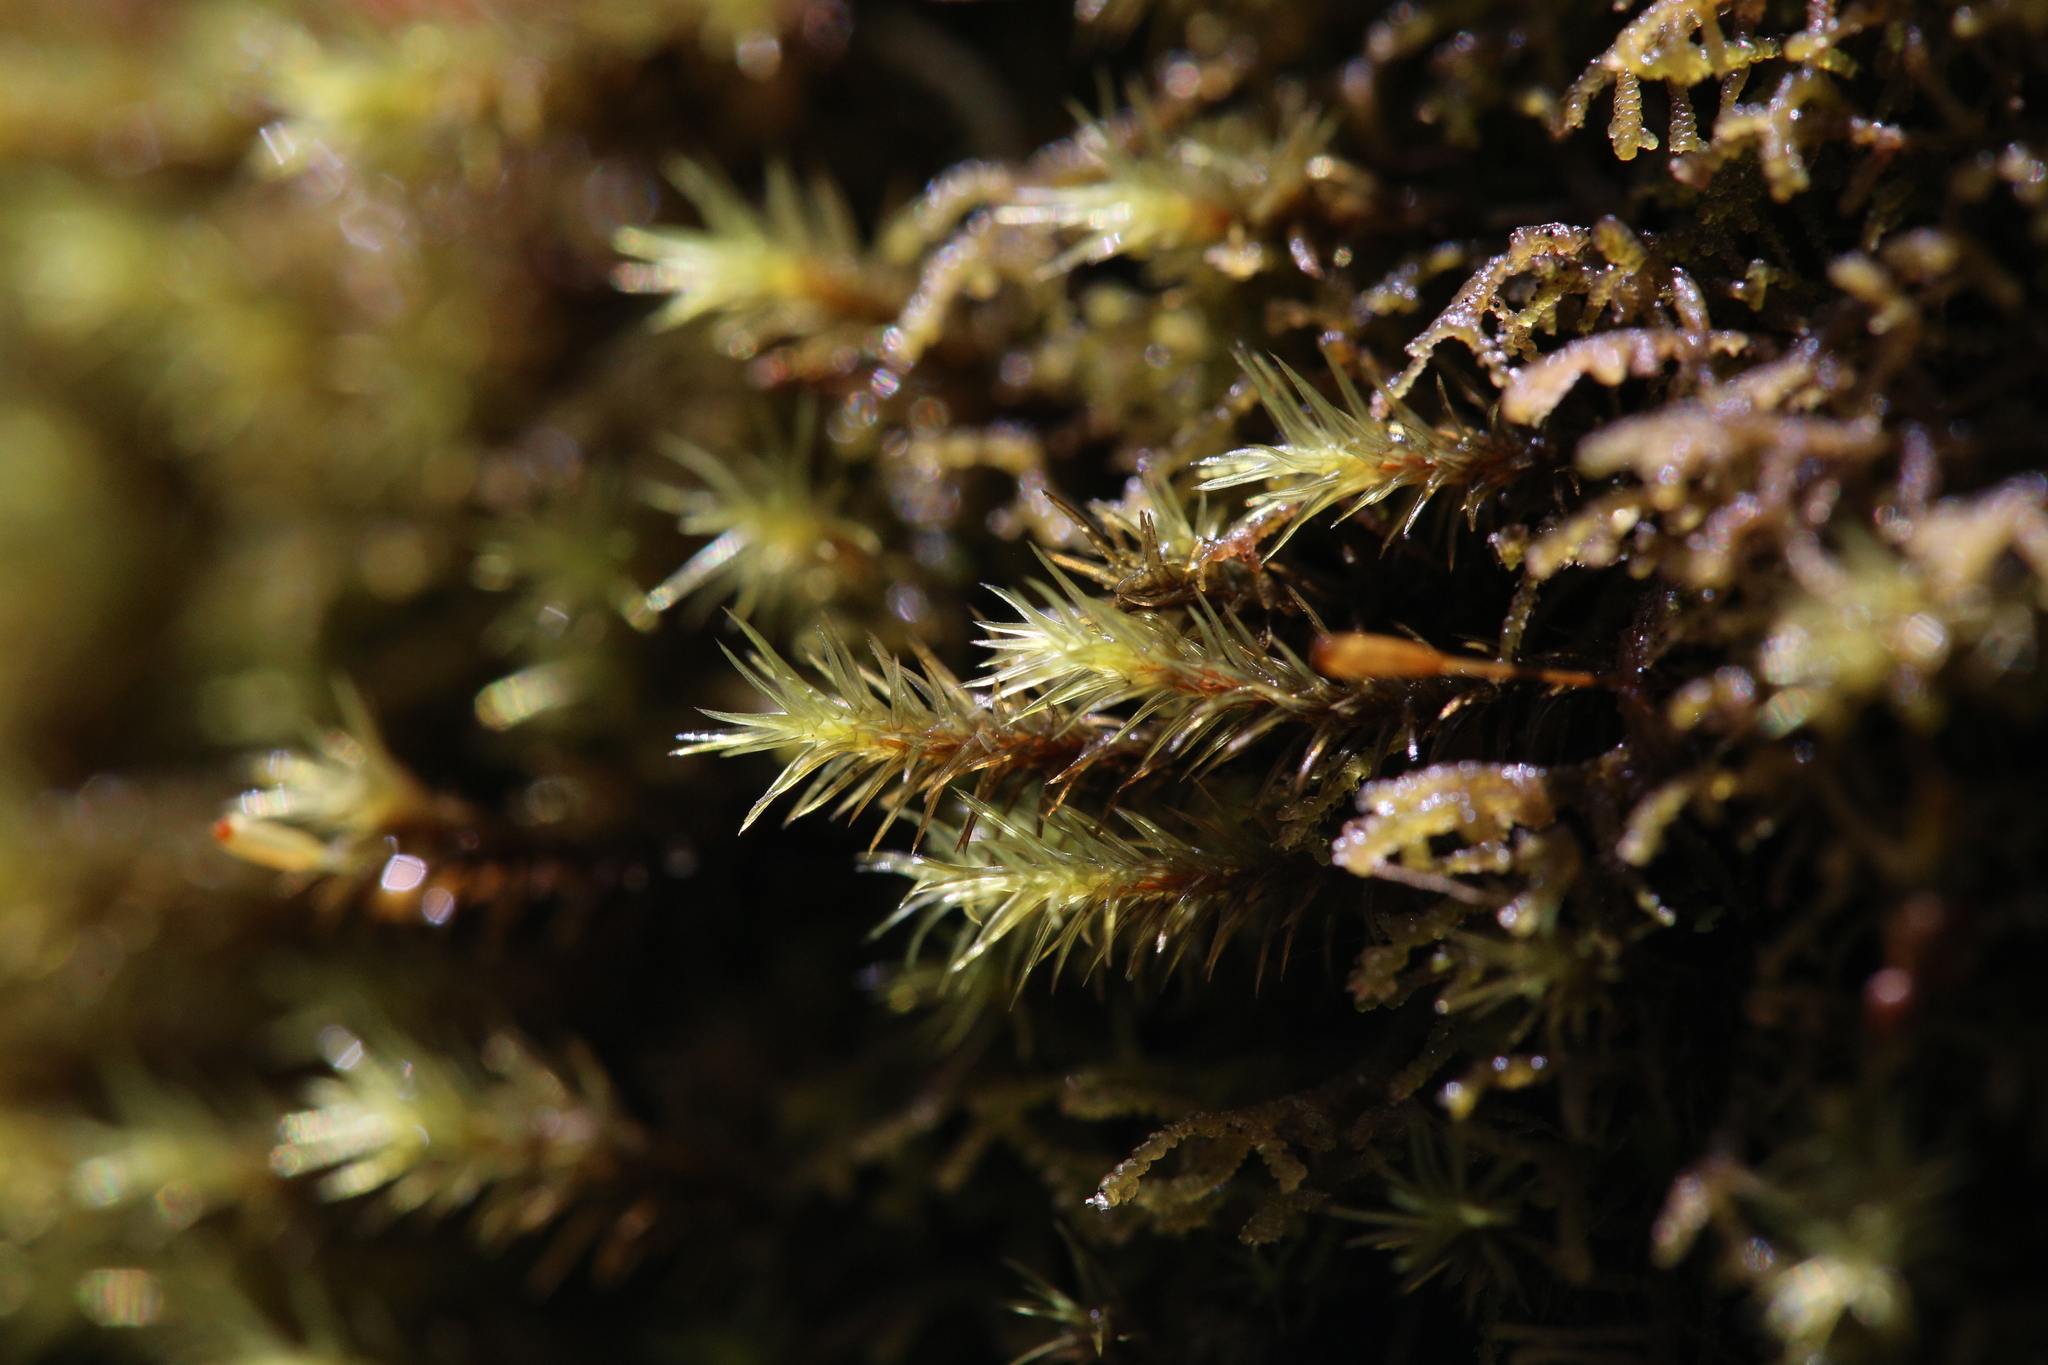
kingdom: Plantae
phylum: Bryophyta
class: Bryopsida
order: Grimmiales
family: Grimmiaceae
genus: Bucklandiella
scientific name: Bucklandiella crispula
